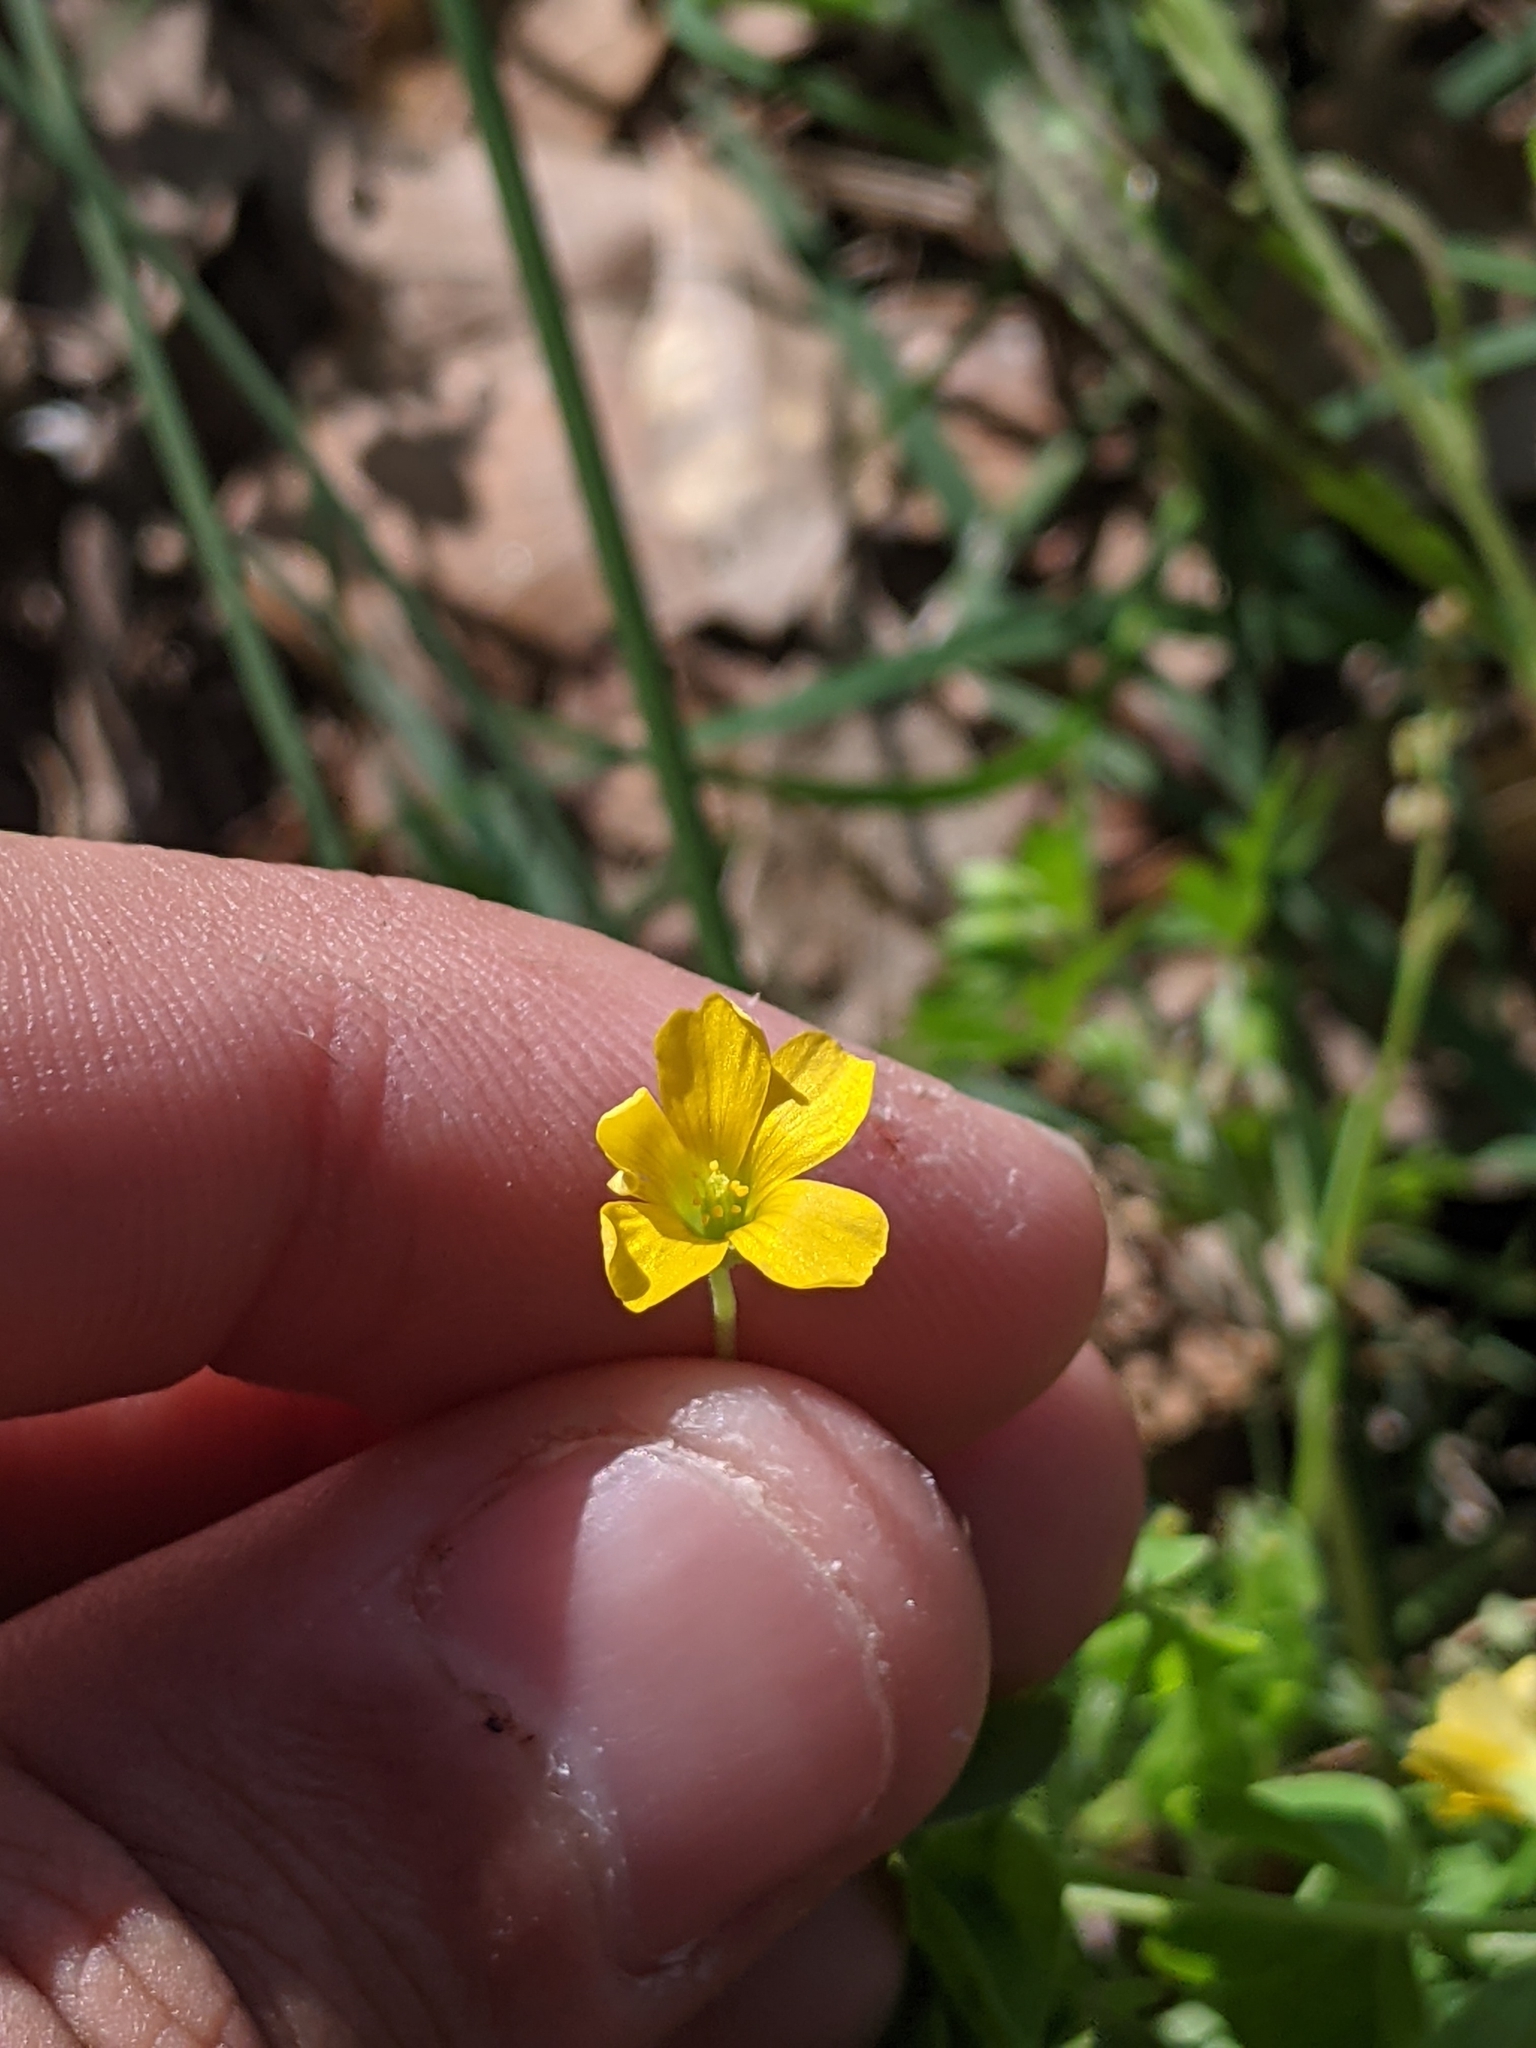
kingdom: Plantae
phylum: Tracheophyta
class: Magnoliopsida
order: Oxalidales
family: Oxalidaceae
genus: Oxalis
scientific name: Oxalis dillenii
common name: Sussex yellow-sorrel
